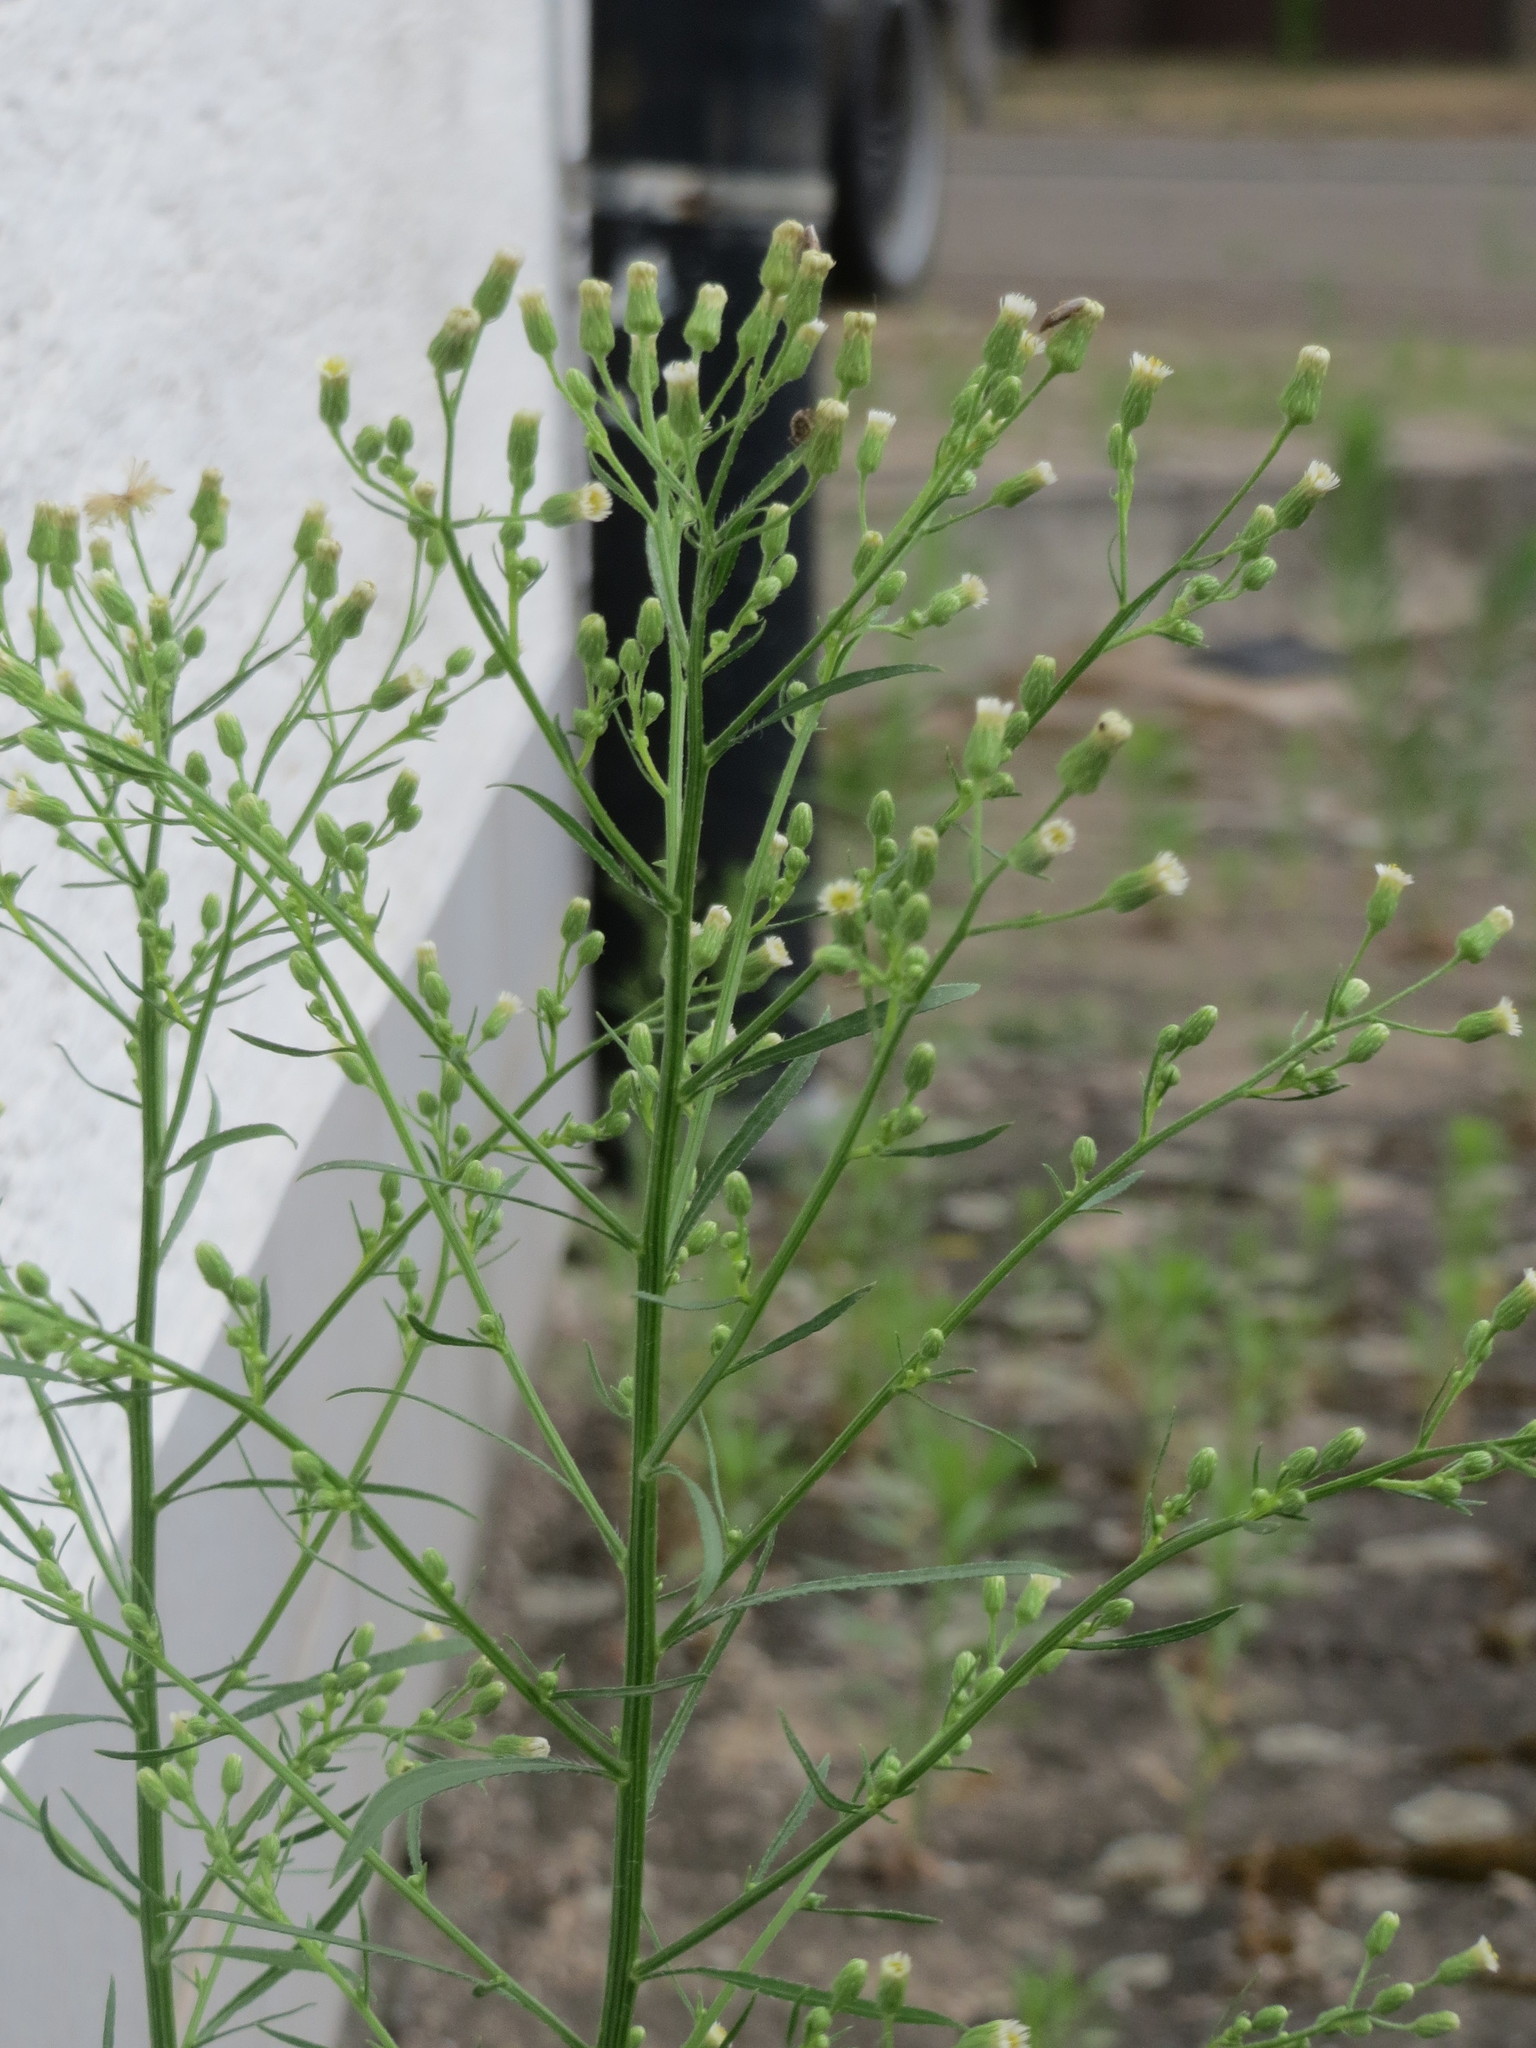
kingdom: Plantae
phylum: Tracheophyta
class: Magnoliopsida
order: Asterales
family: Asteraceae
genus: Erigeron
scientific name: Erigeron canadensis
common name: Canadian fleabane
